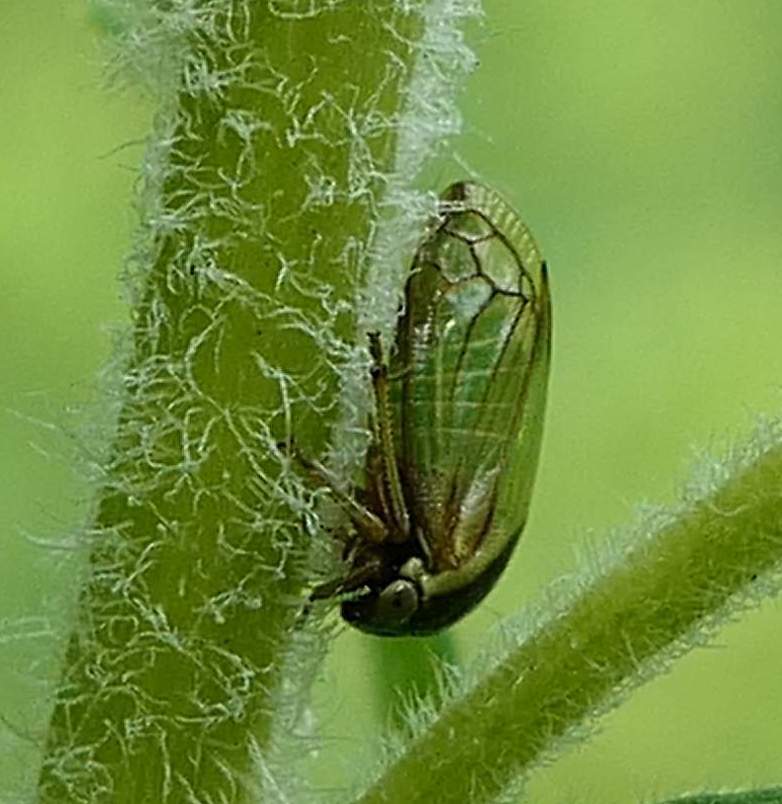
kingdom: Animalia
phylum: Arthropoda
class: Insecta
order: Hemiptera
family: Membracidae
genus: Acutalis
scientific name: Acutalis tartarea
